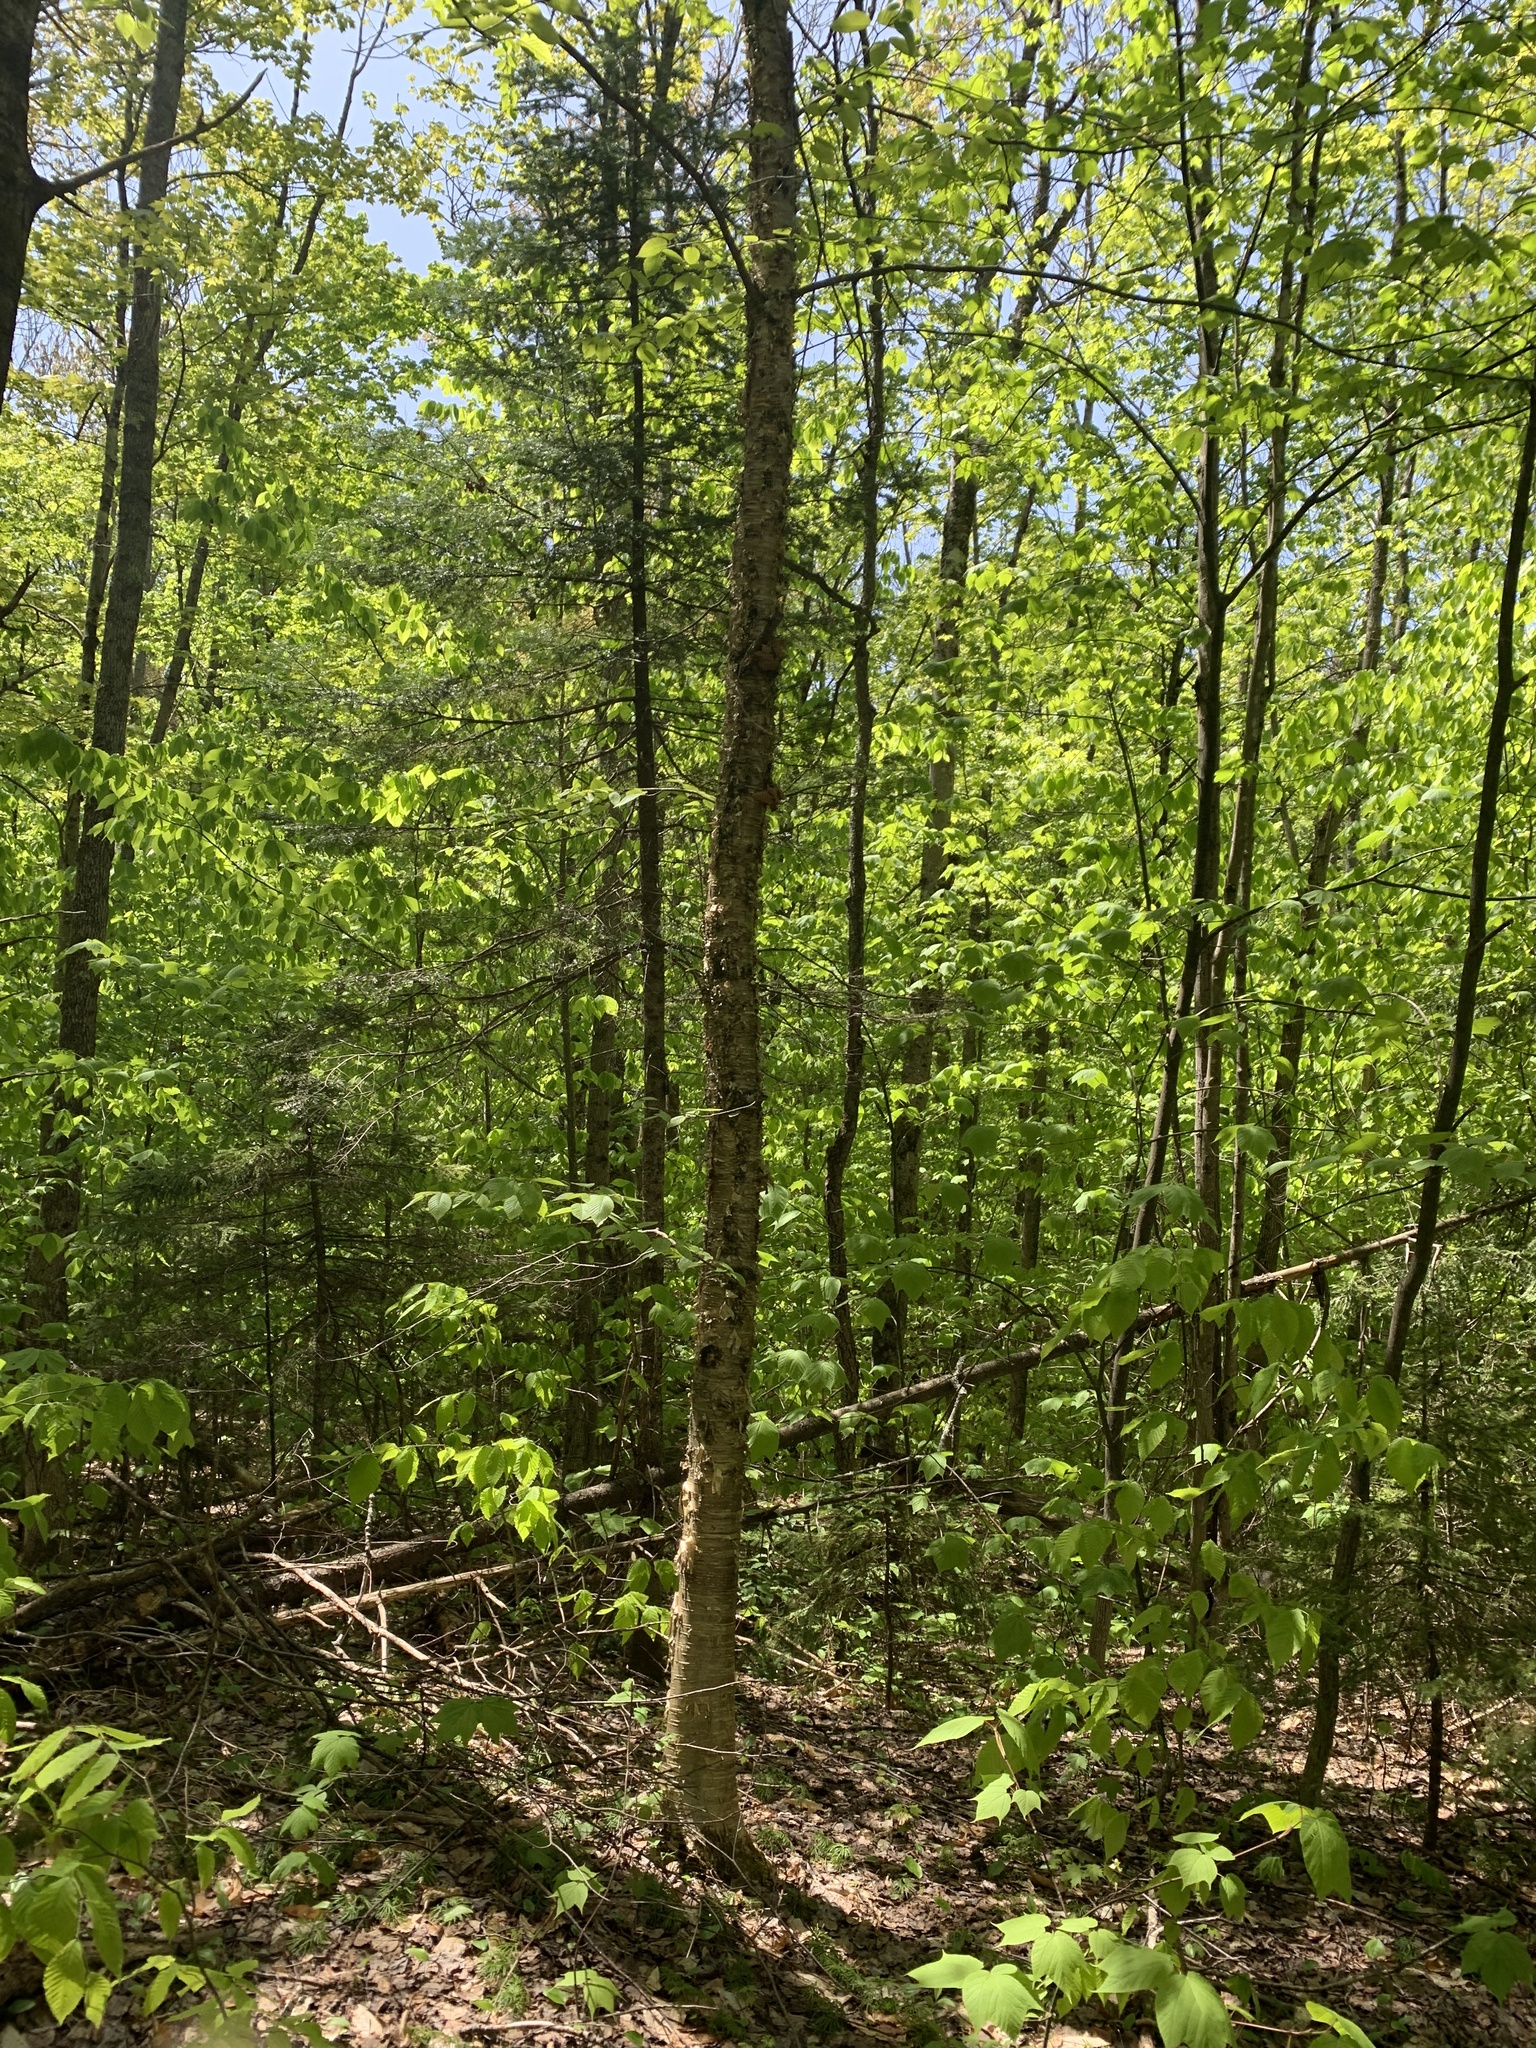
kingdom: Plantae
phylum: Tracheophyta
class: Magnoliopsida
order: Fagales
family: Betulaceae
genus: Betula
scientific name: Betula alleghaniensis
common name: Yellow birch
